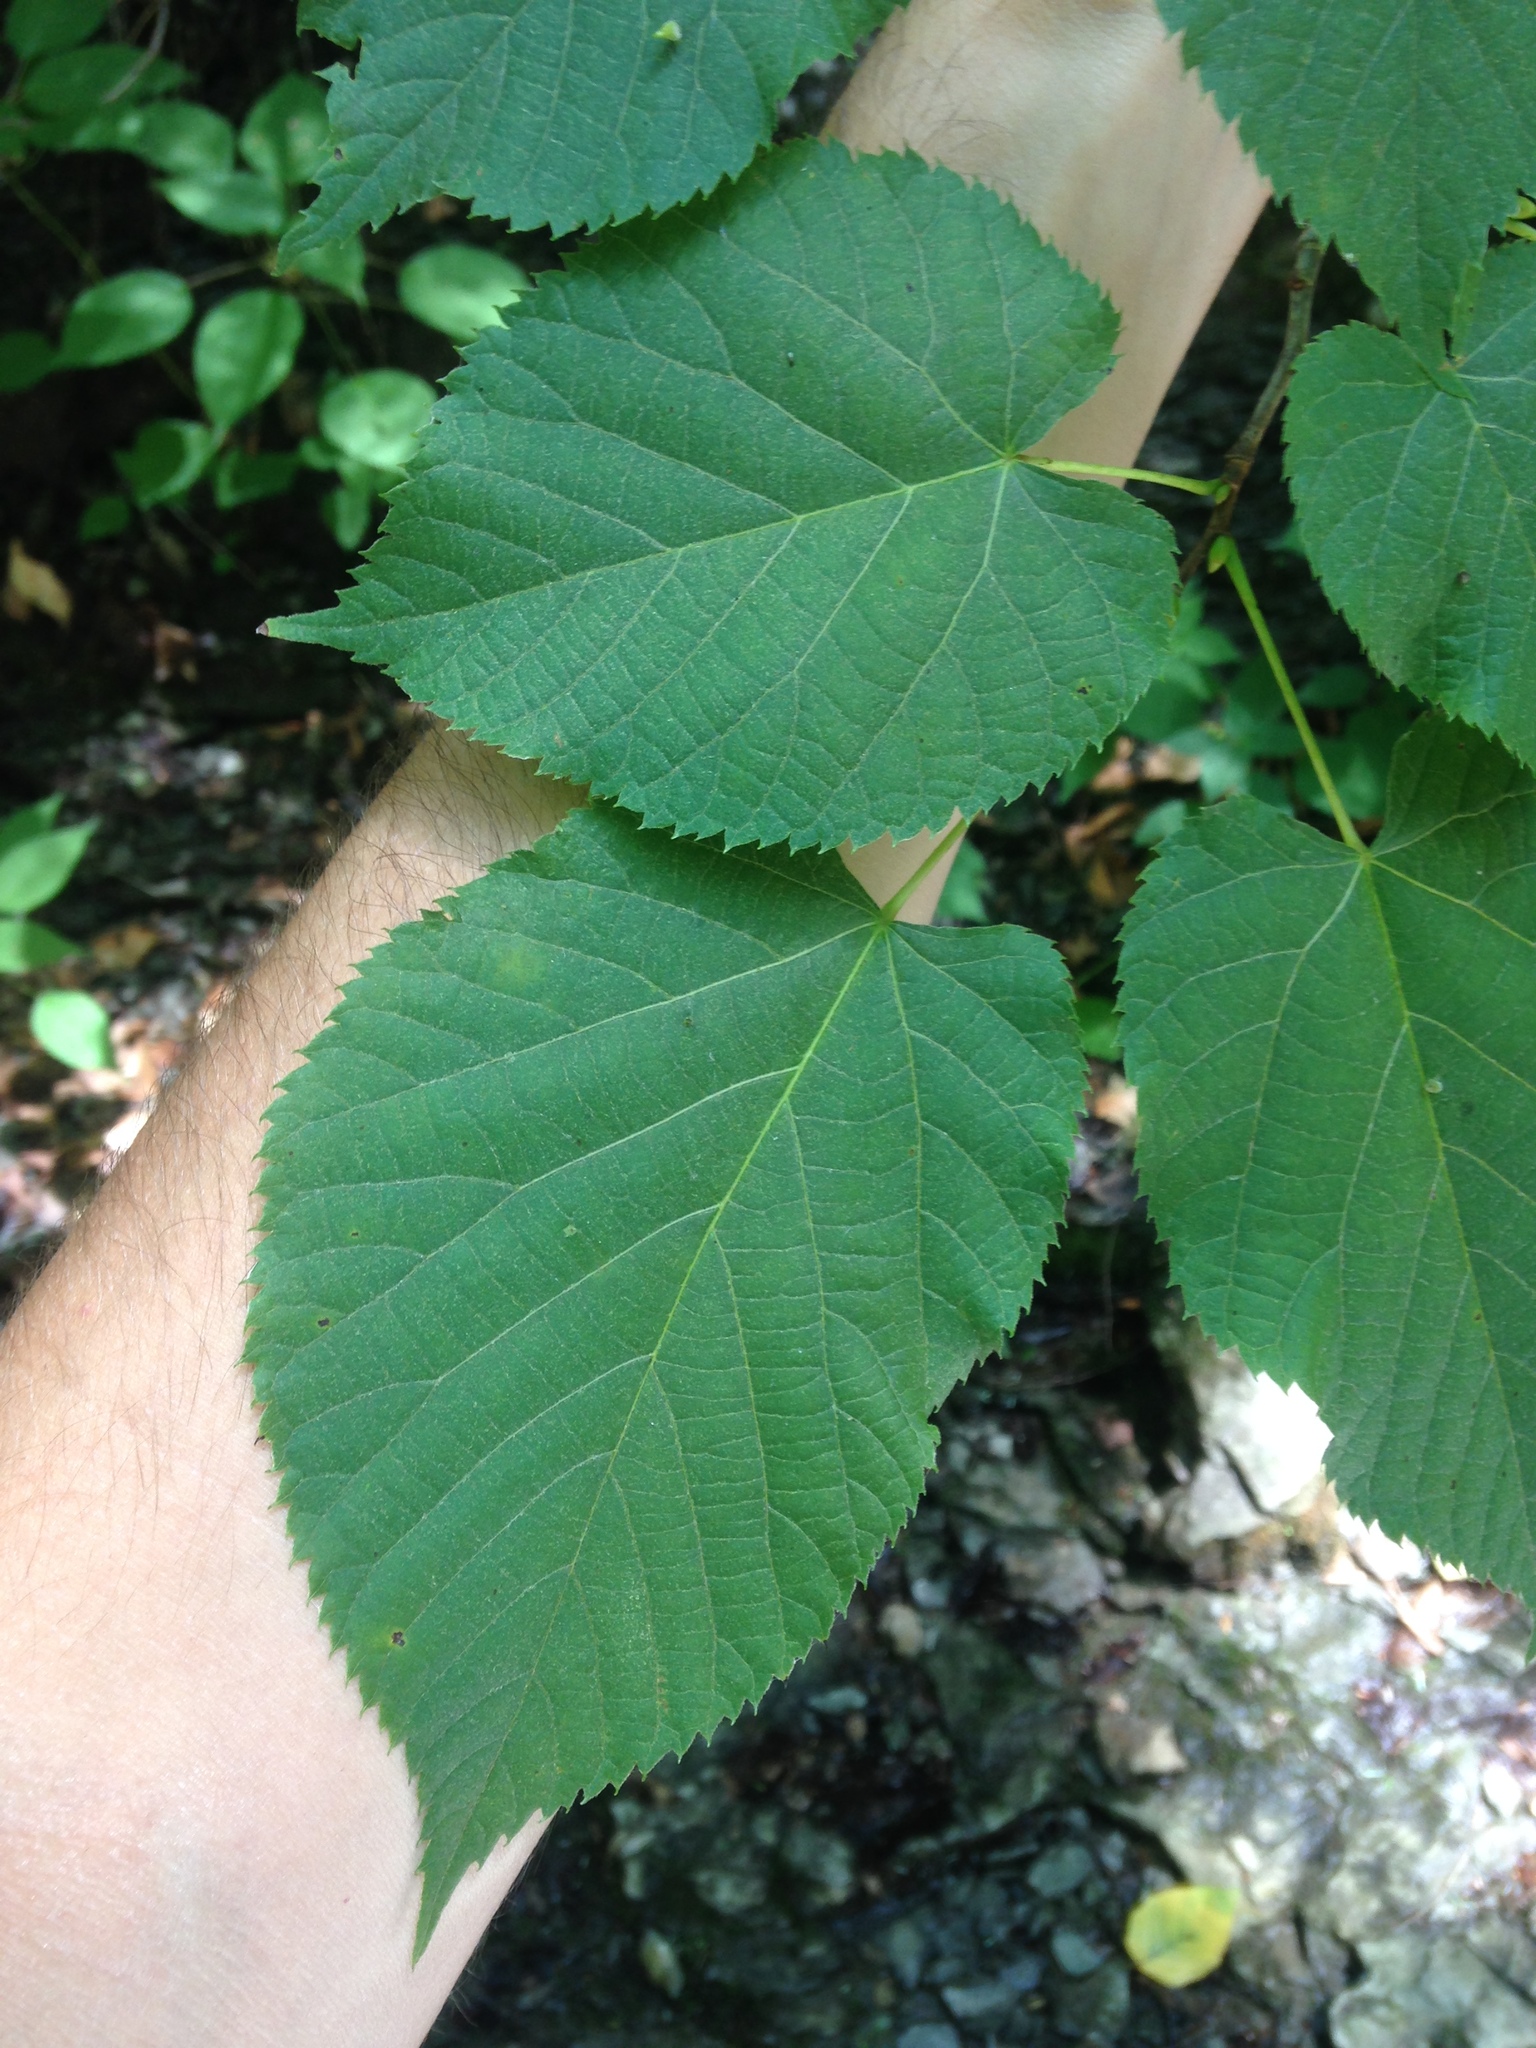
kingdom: Plantae
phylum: Tracheophyta
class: Magnoliopsida
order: Malvales
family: Malvaceae
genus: Tilia
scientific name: Tilia americana
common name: Basswood
